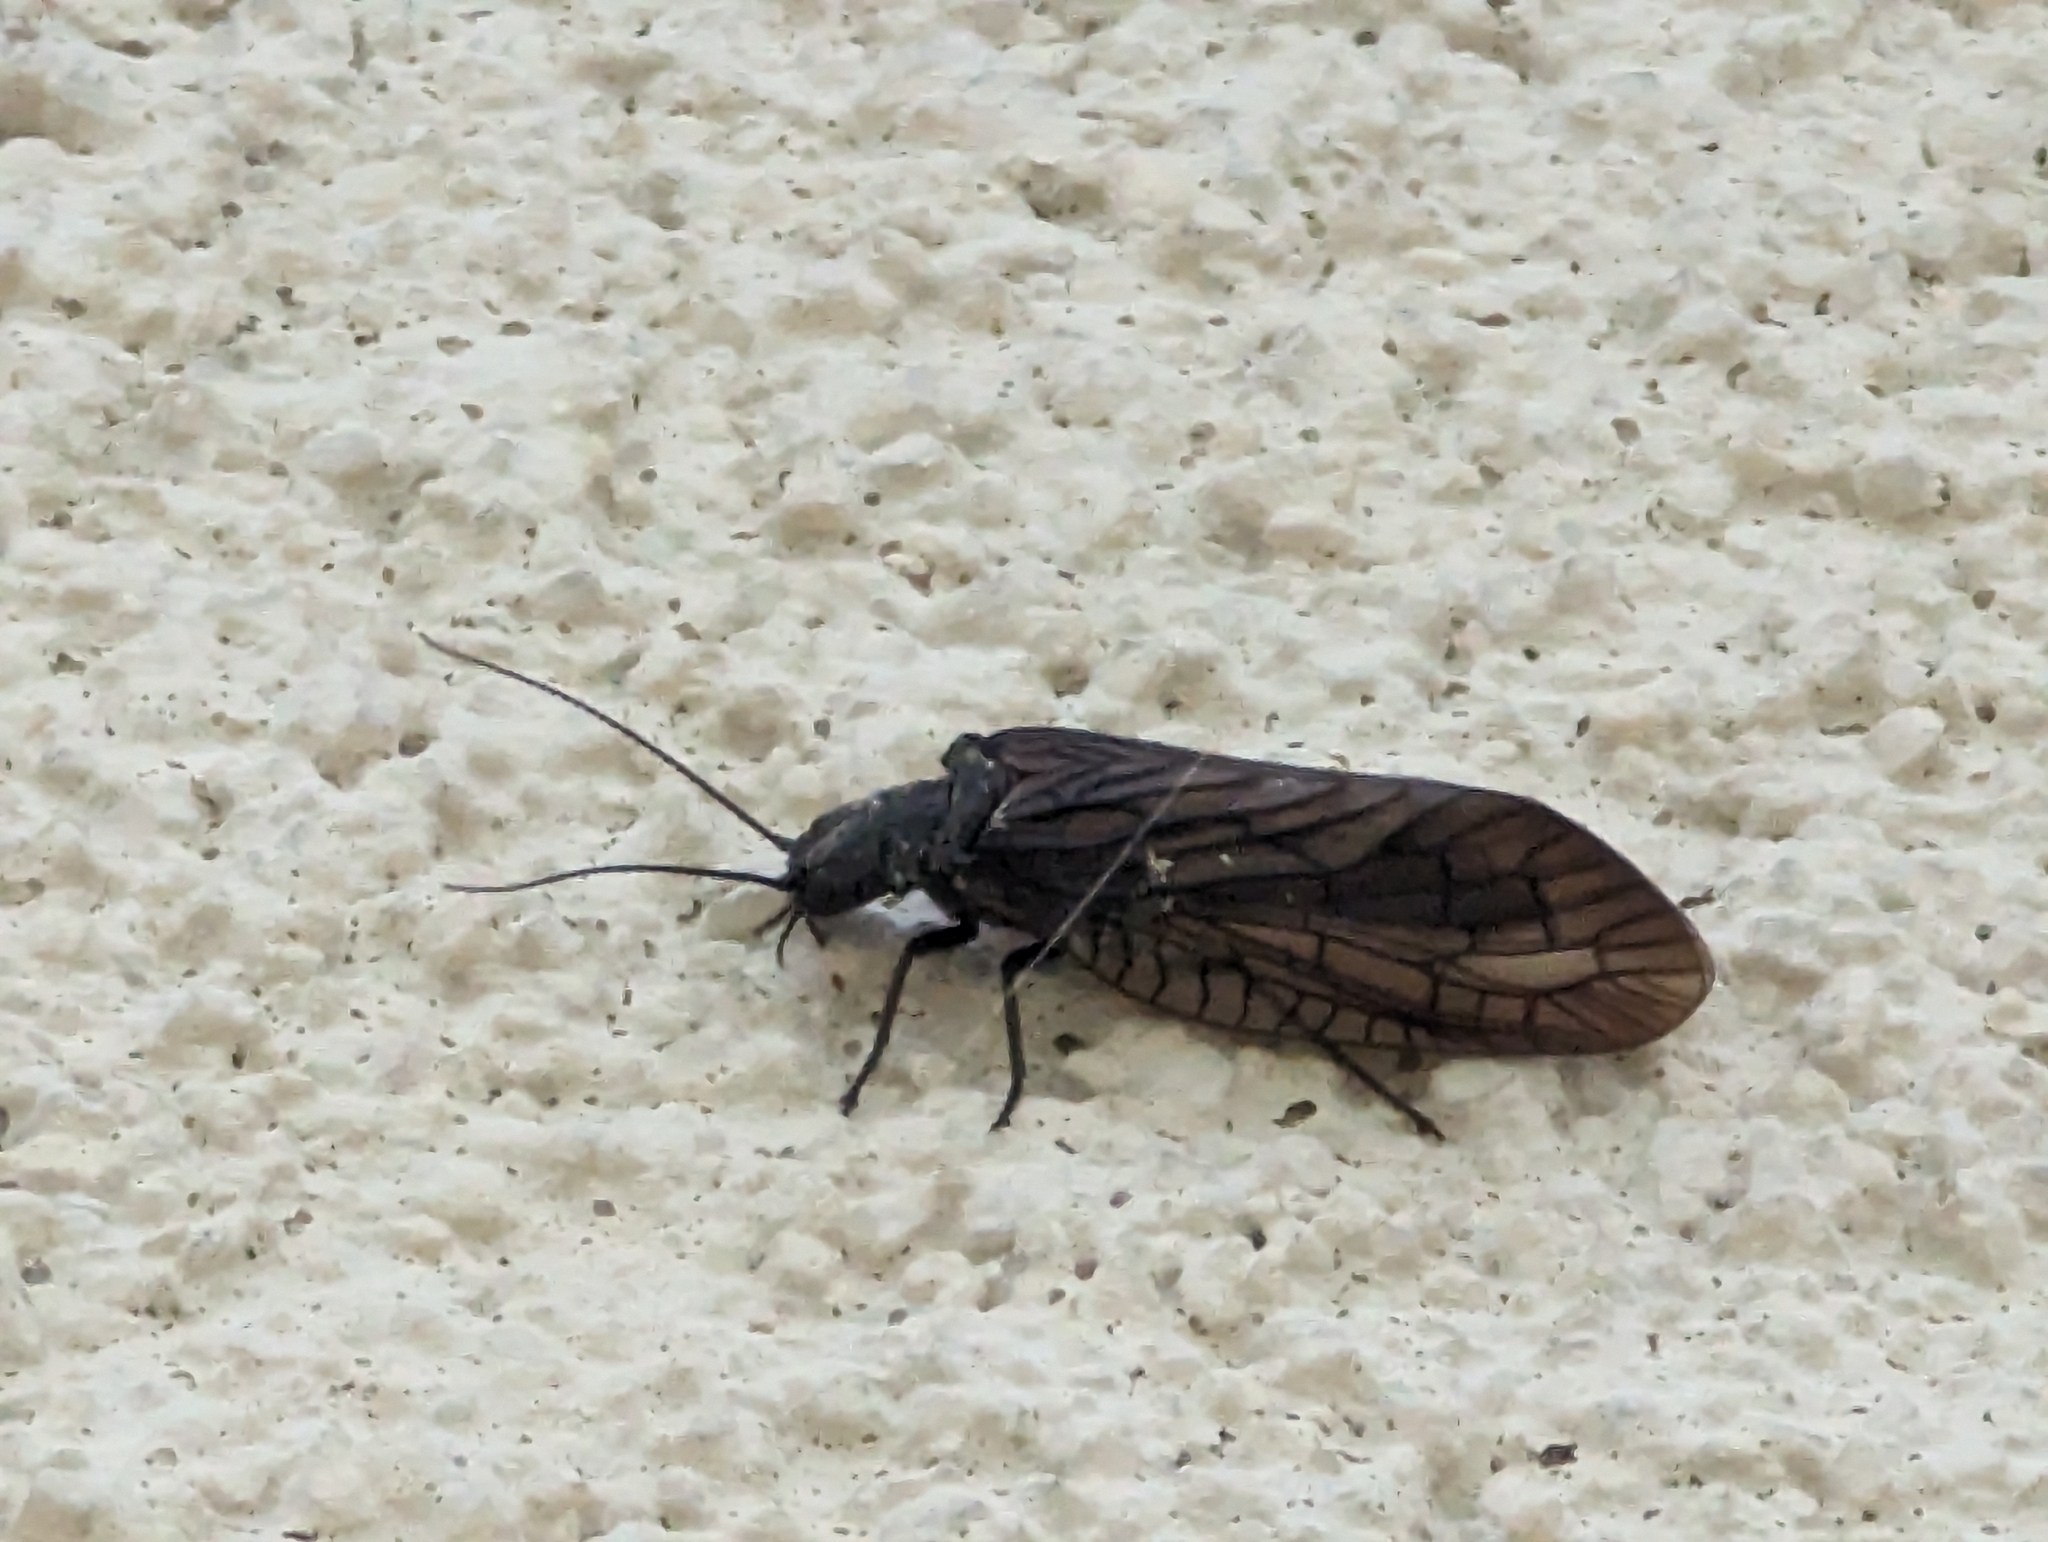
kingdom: Animalia
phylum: Arthropoda
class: Insecta
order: Megaloptera
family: Sialidae
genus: Sialis
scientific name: Sialis
